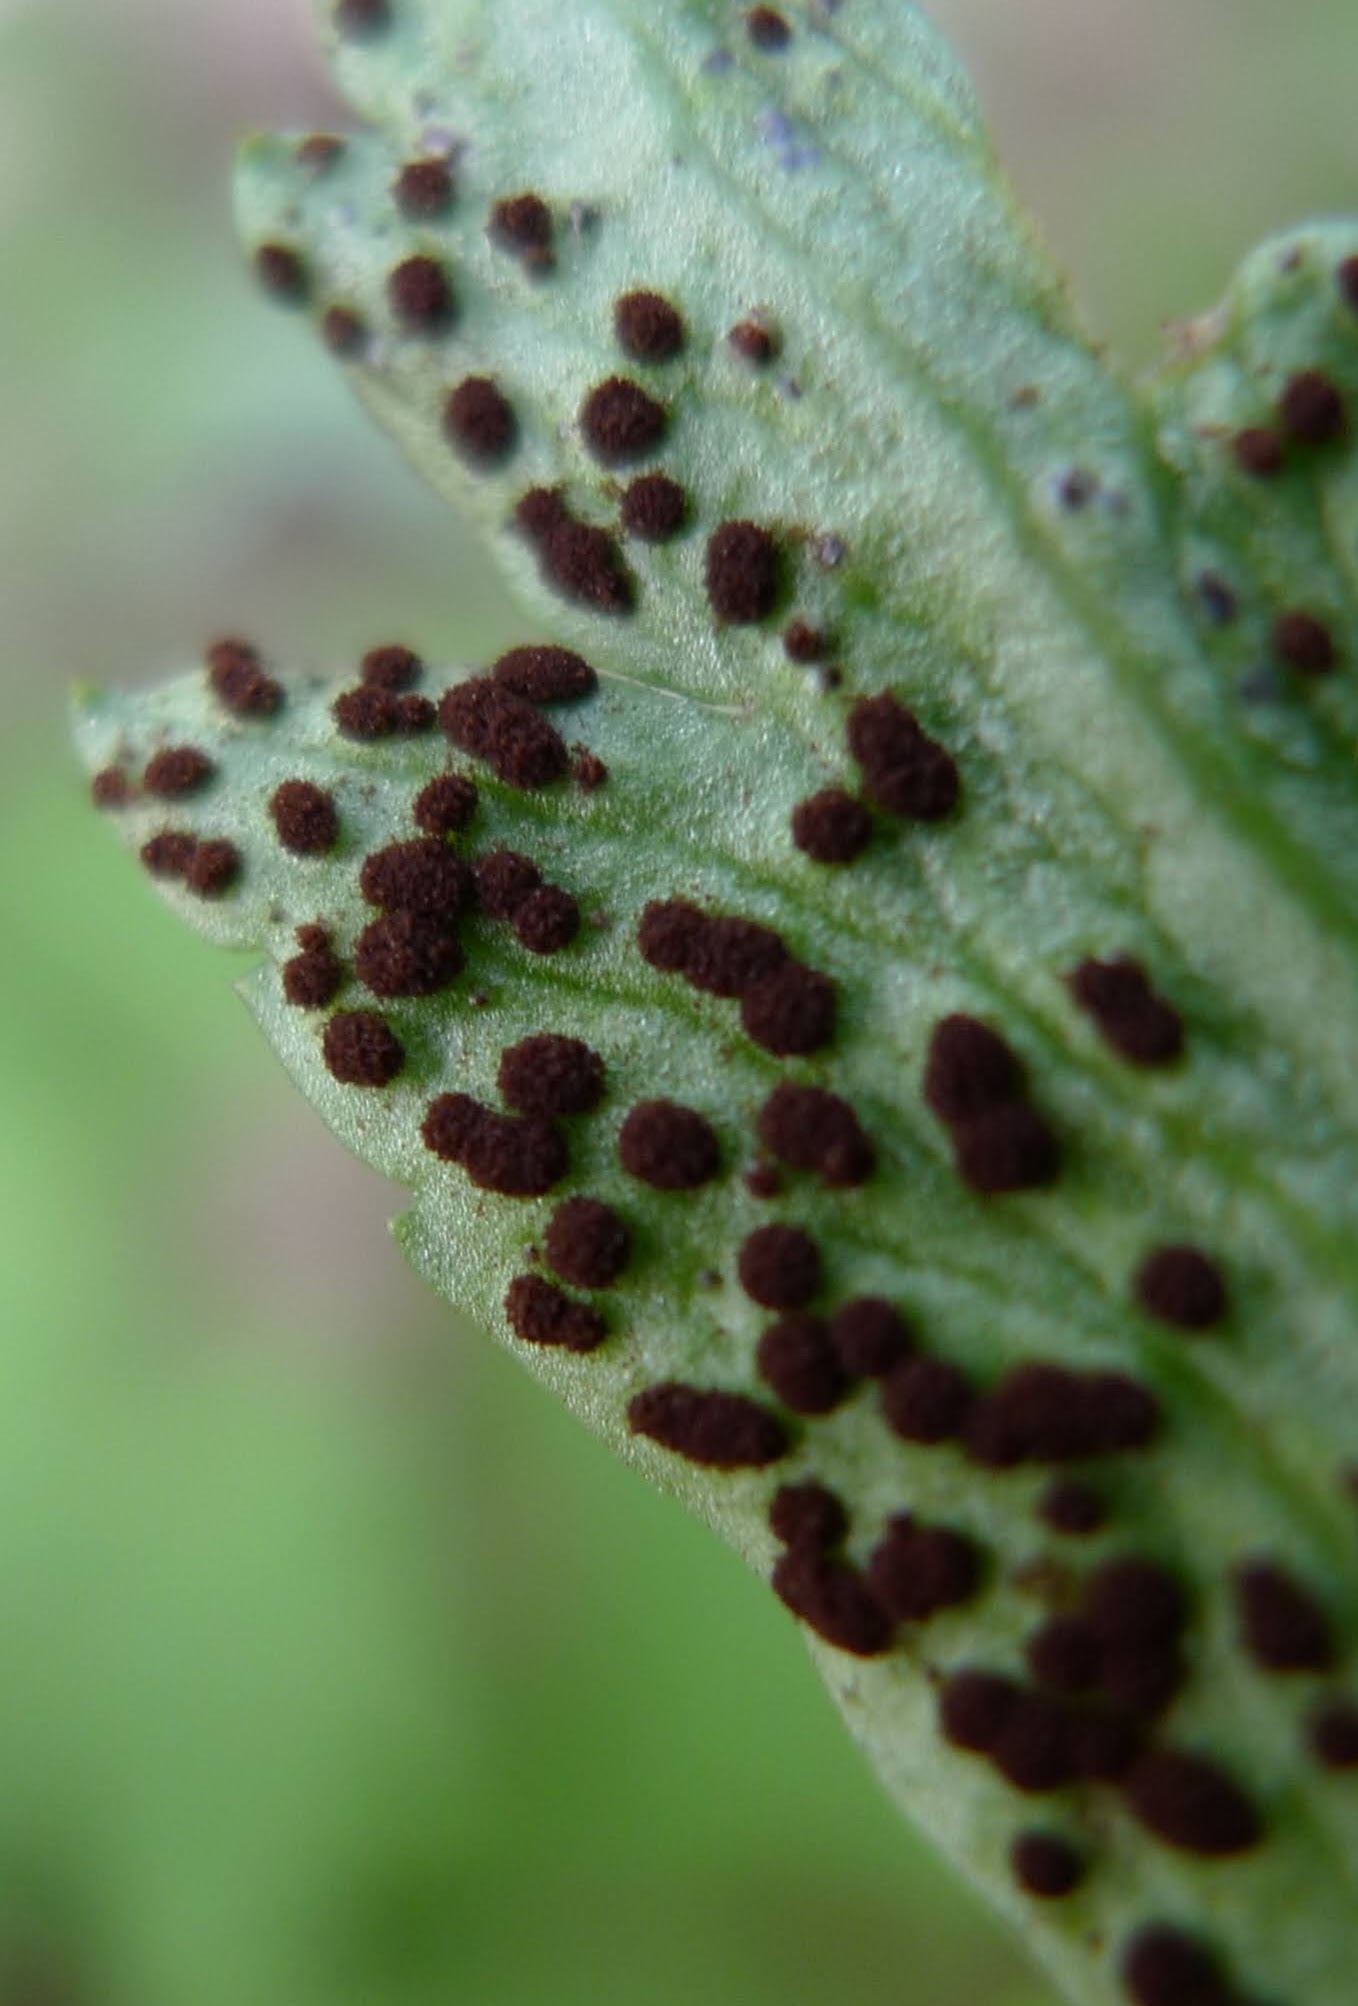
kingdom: Fungi
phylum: Basidiomycota
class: Pucciniomycetes
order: Pucciniales
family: Tranzscheliaceae
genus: Tranzschelia
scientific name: Tranzschelia anemones
